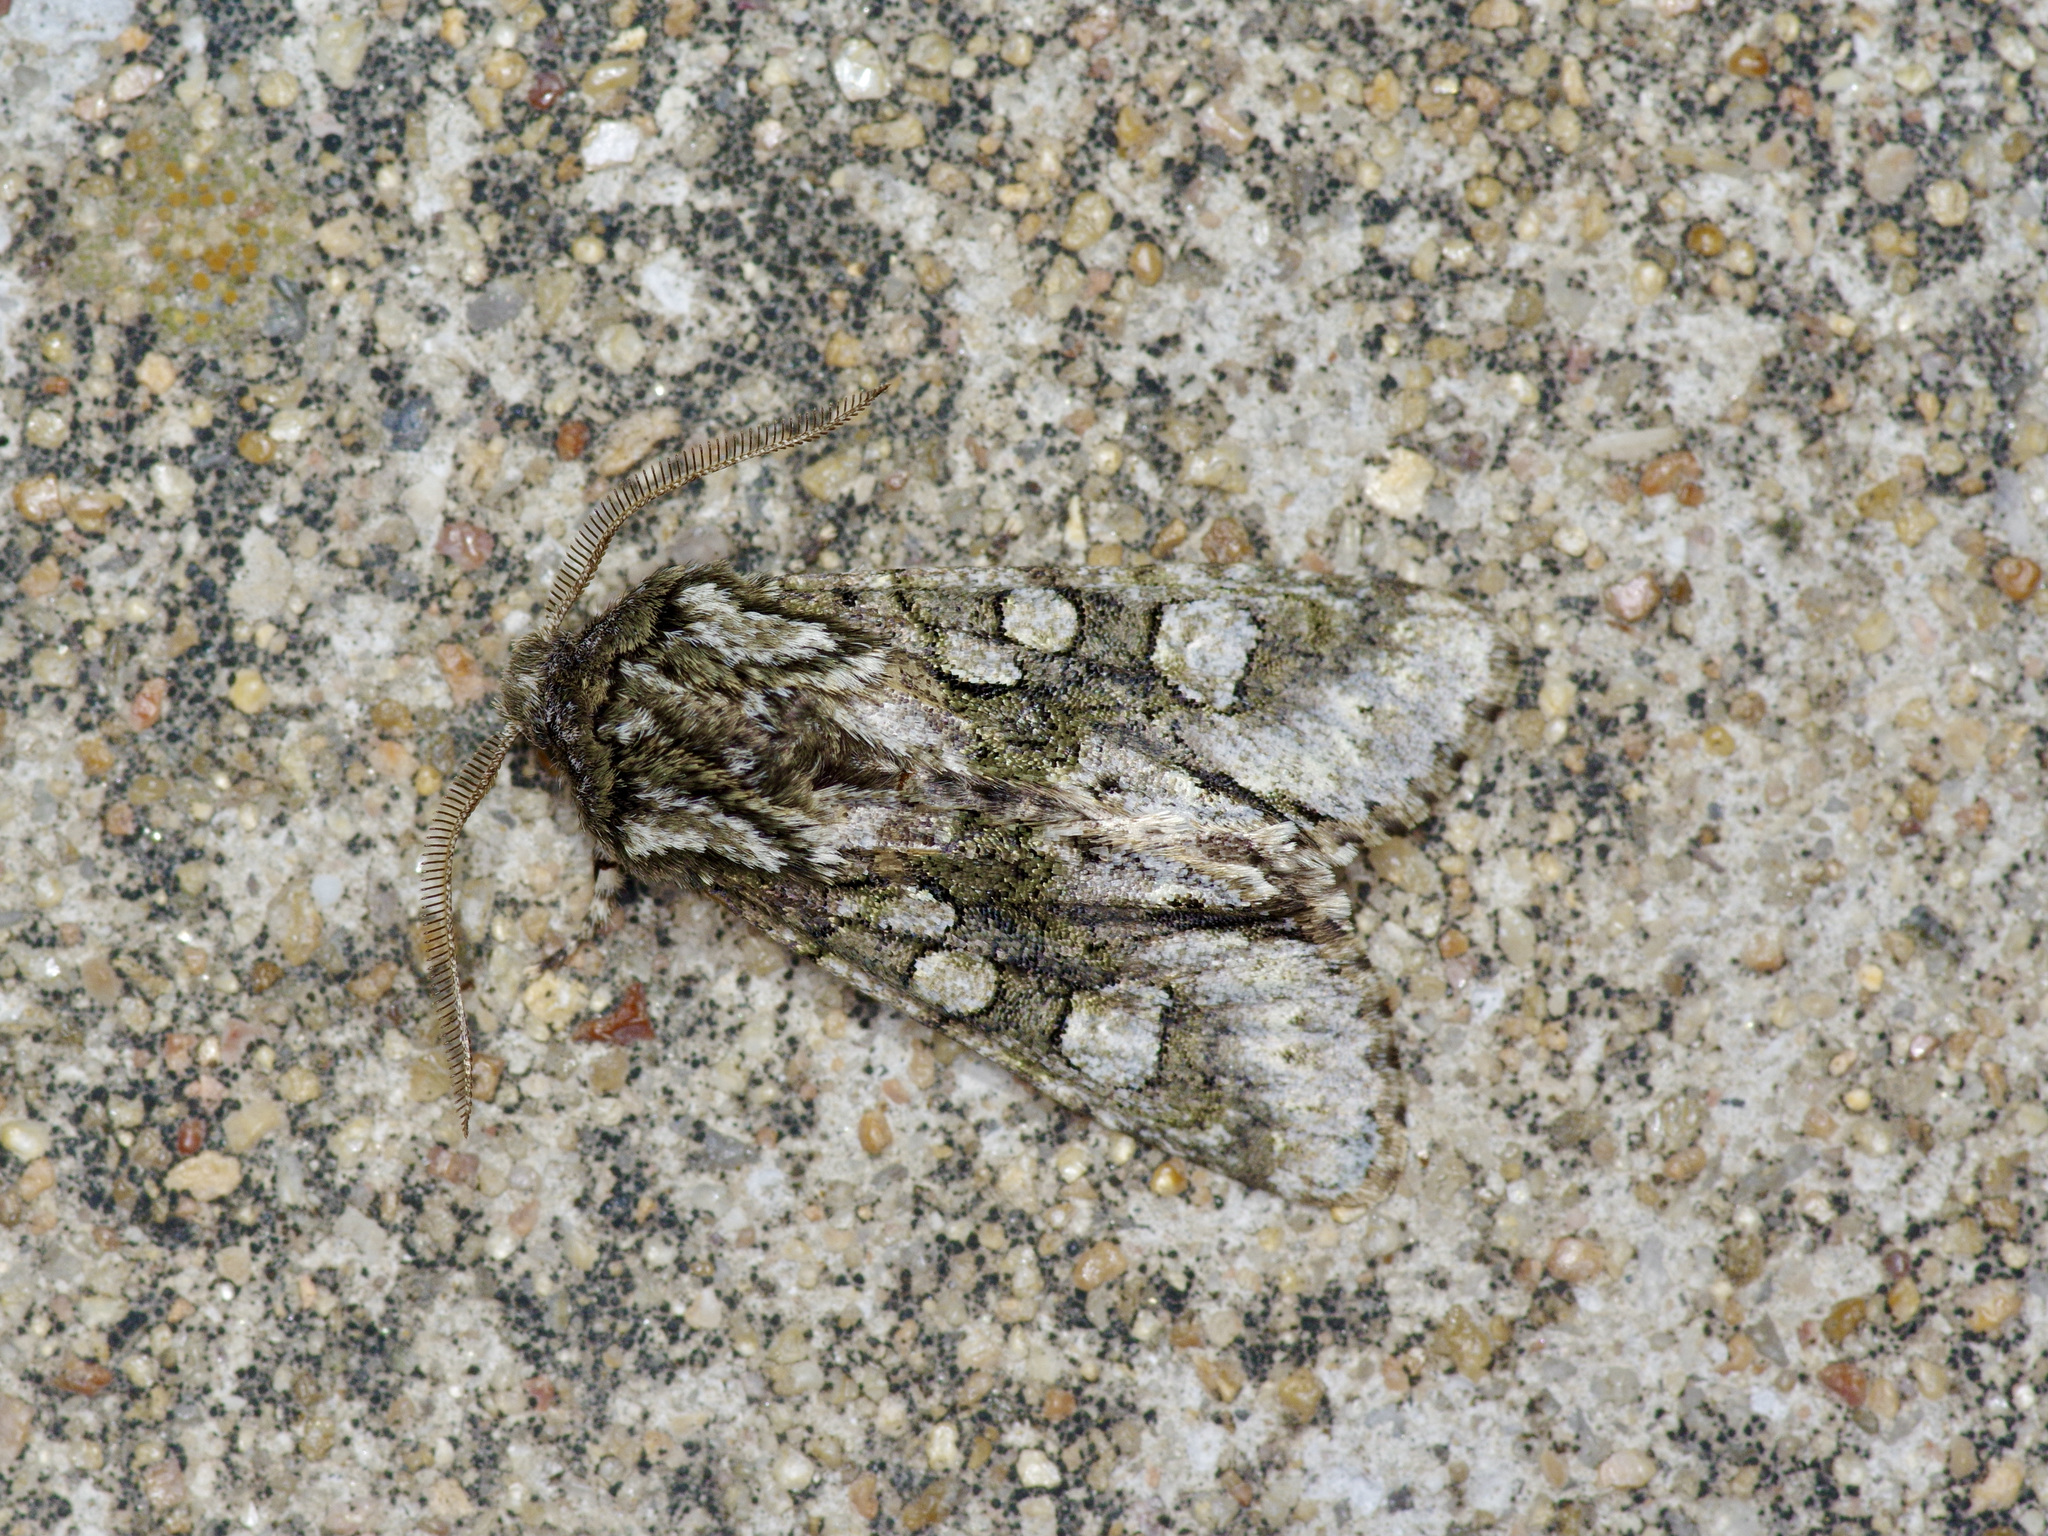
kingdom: Animalia
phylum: Arthropoda
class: Insecta
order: Lepidoptera
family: Noctuidae
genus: Psaphida
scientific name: Psaphida resumens
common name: Figure-eight sallow
